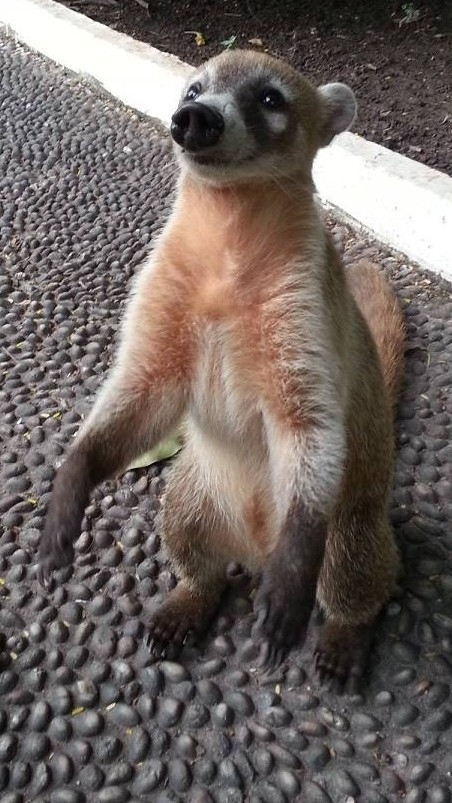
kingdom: Animalia
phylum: Chordata
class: Mammalia
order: Carnivora
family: Procyonidae
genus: Nasua
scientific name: Nasua narica
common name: White-nosed coati
